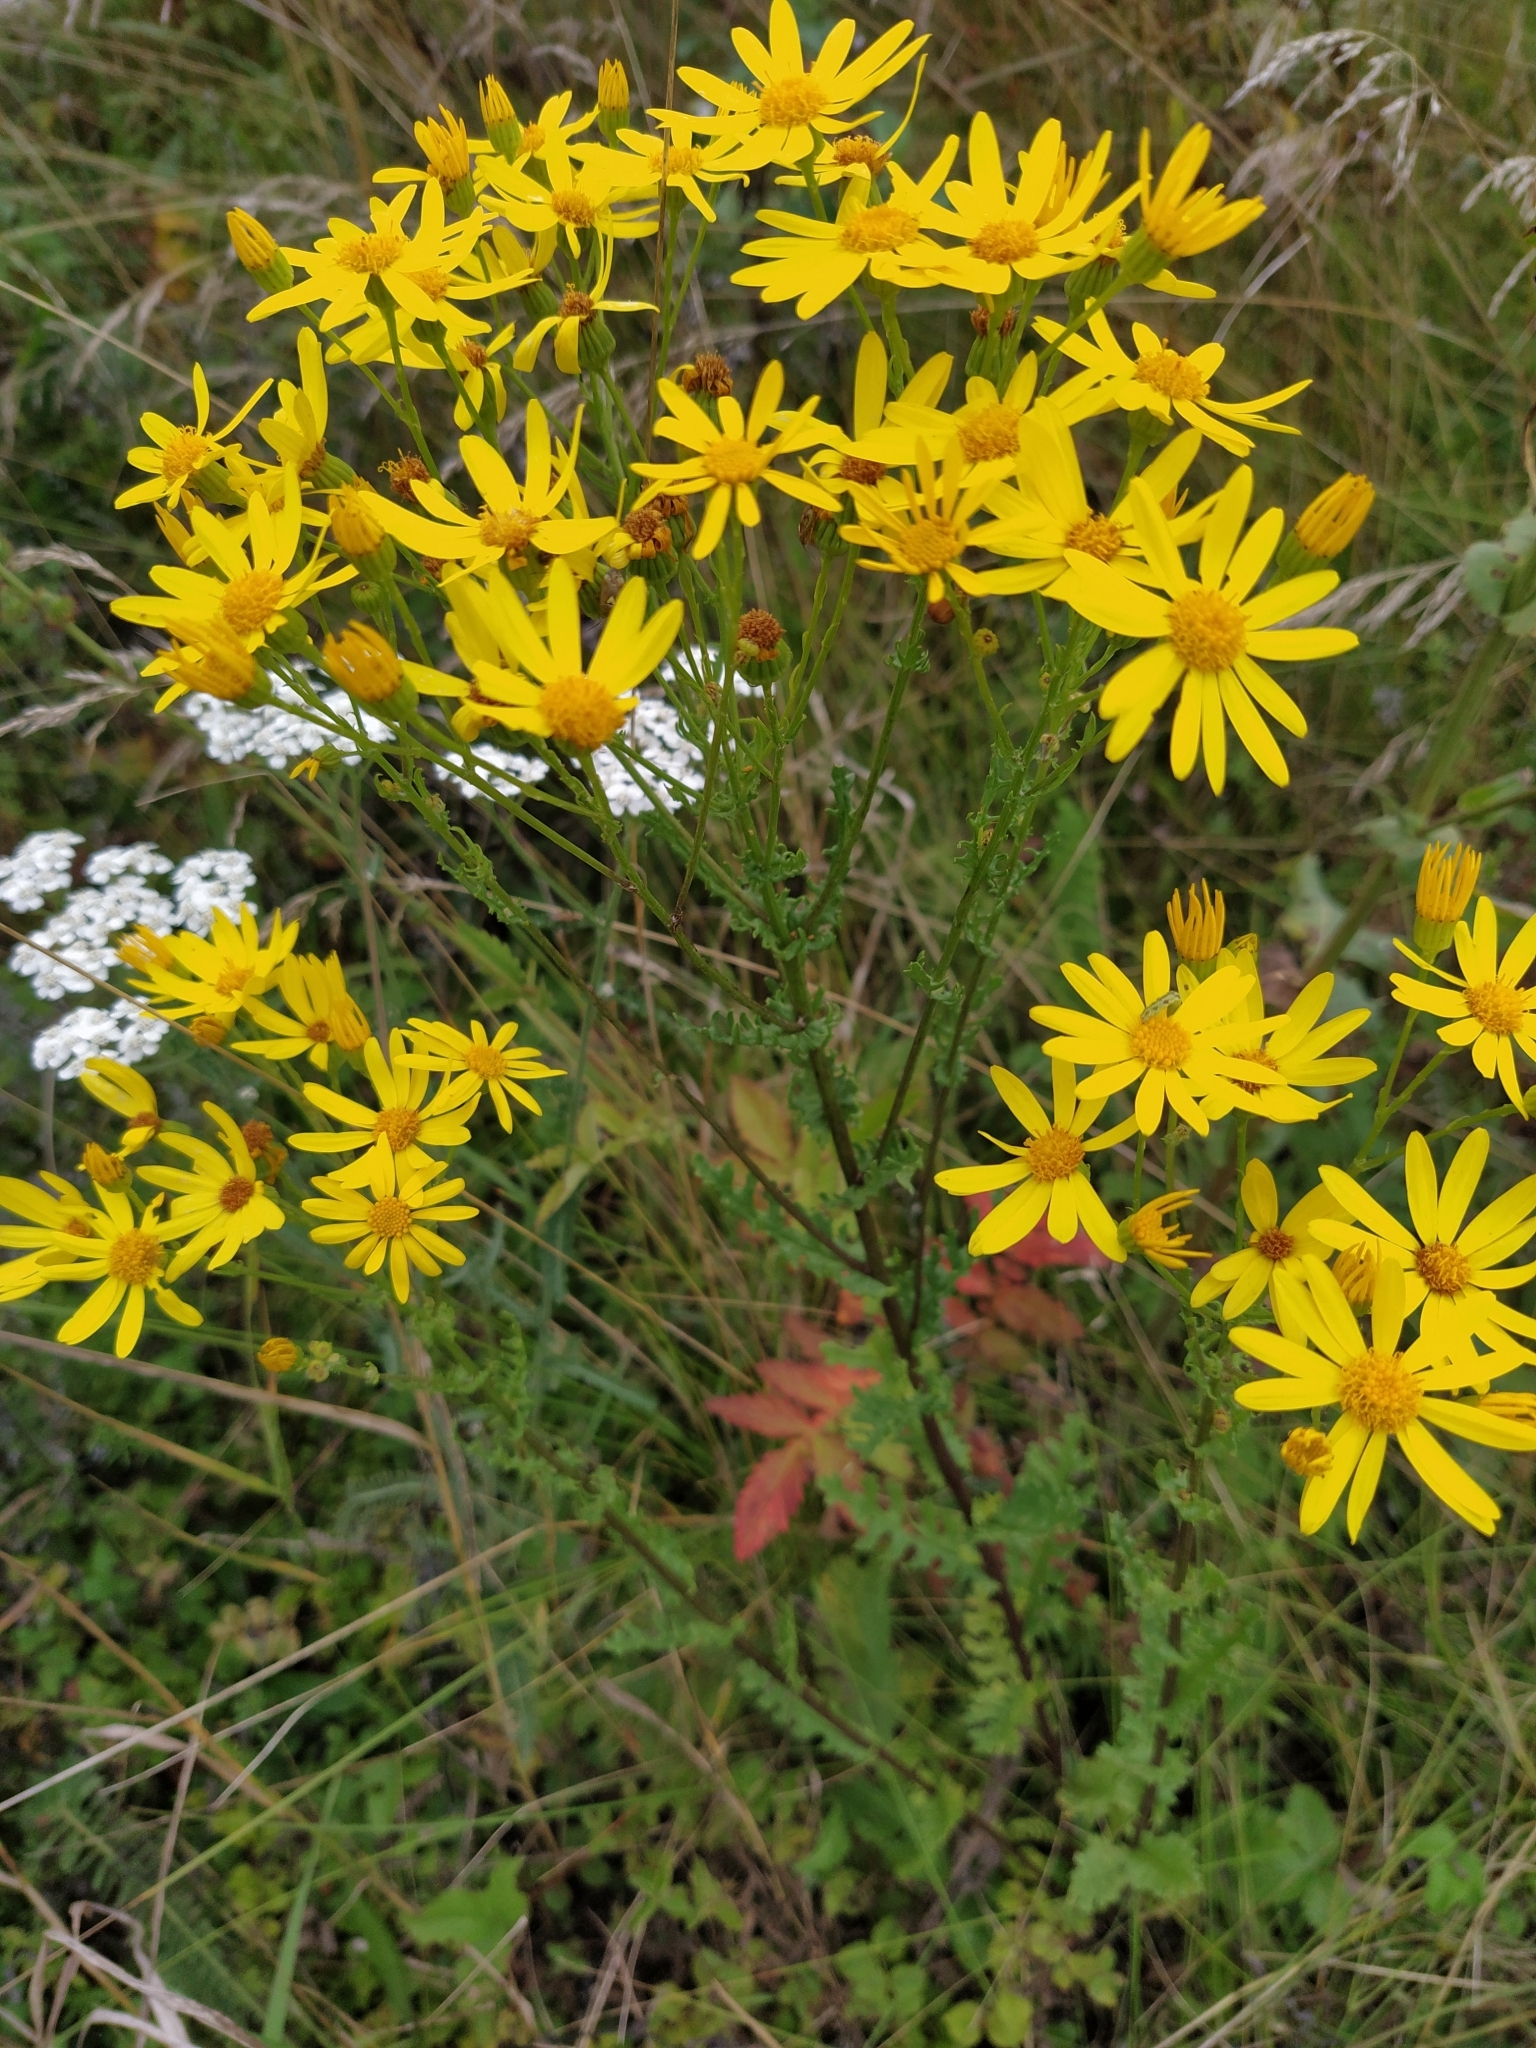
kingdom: Plantae
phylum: Tracheophyta
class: Magnoliopsida
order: Asterales
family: Asteraceae
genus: Jacobaea
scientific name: Jacobaea vulgaris
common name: Stinking willie
